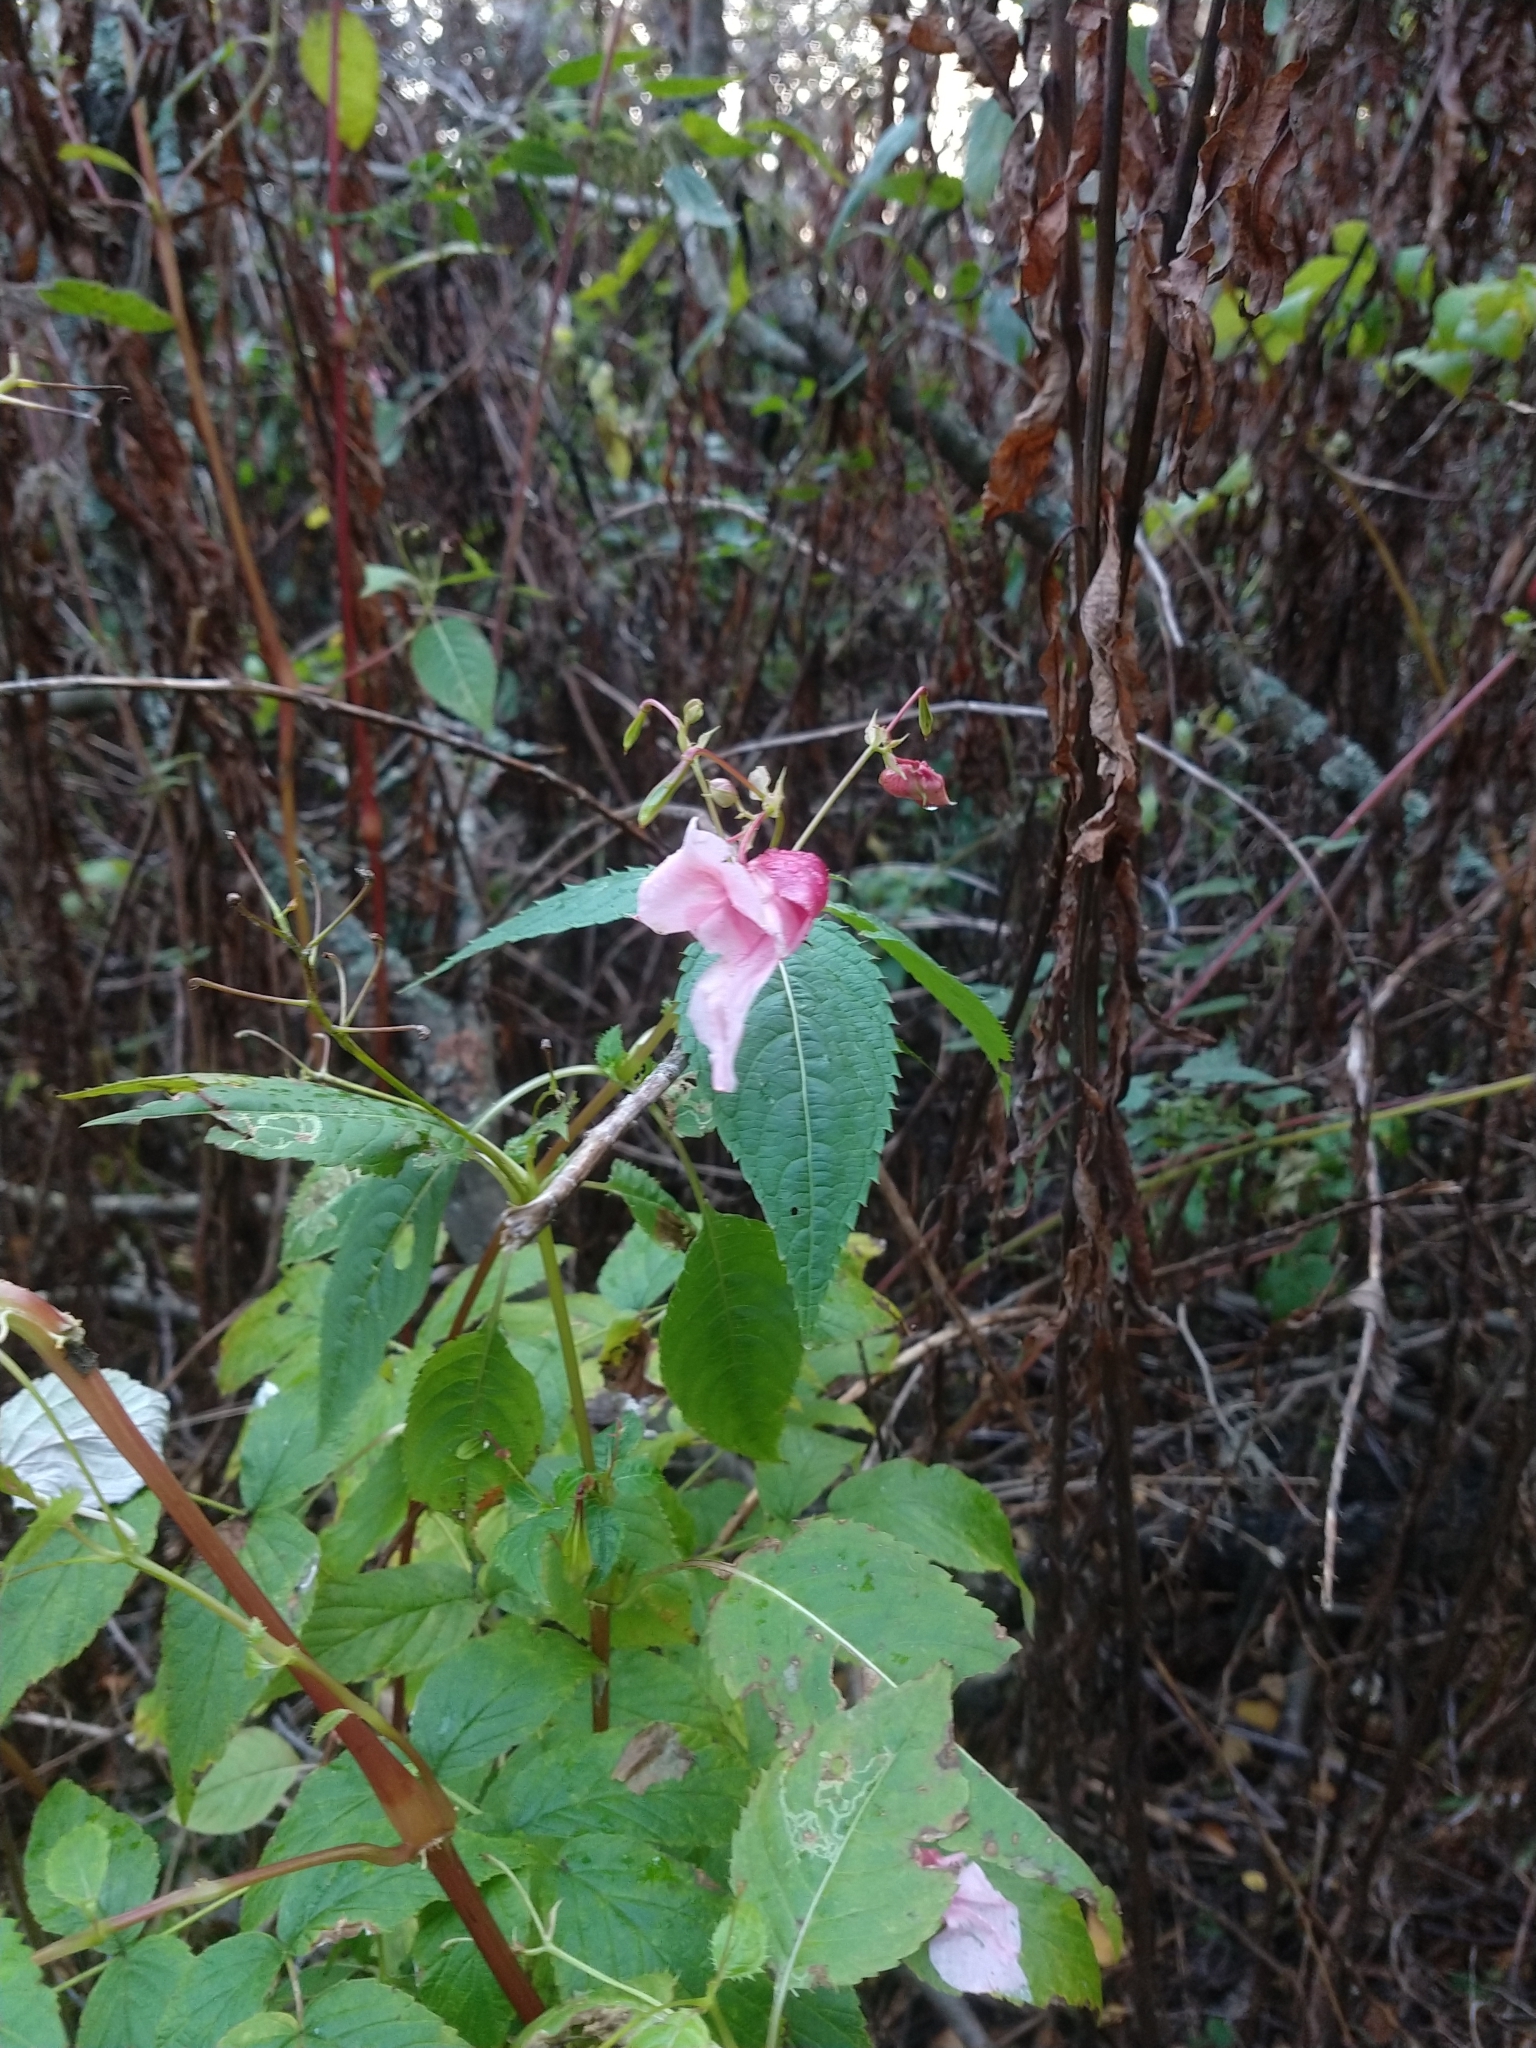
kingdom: Plantae
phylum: Tracheophyta
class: Magnoliopsida
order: Ericales
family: Balsaminaceae
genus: Impatiens
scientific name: Impatiens glandulifera
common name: Himalayan balsam
